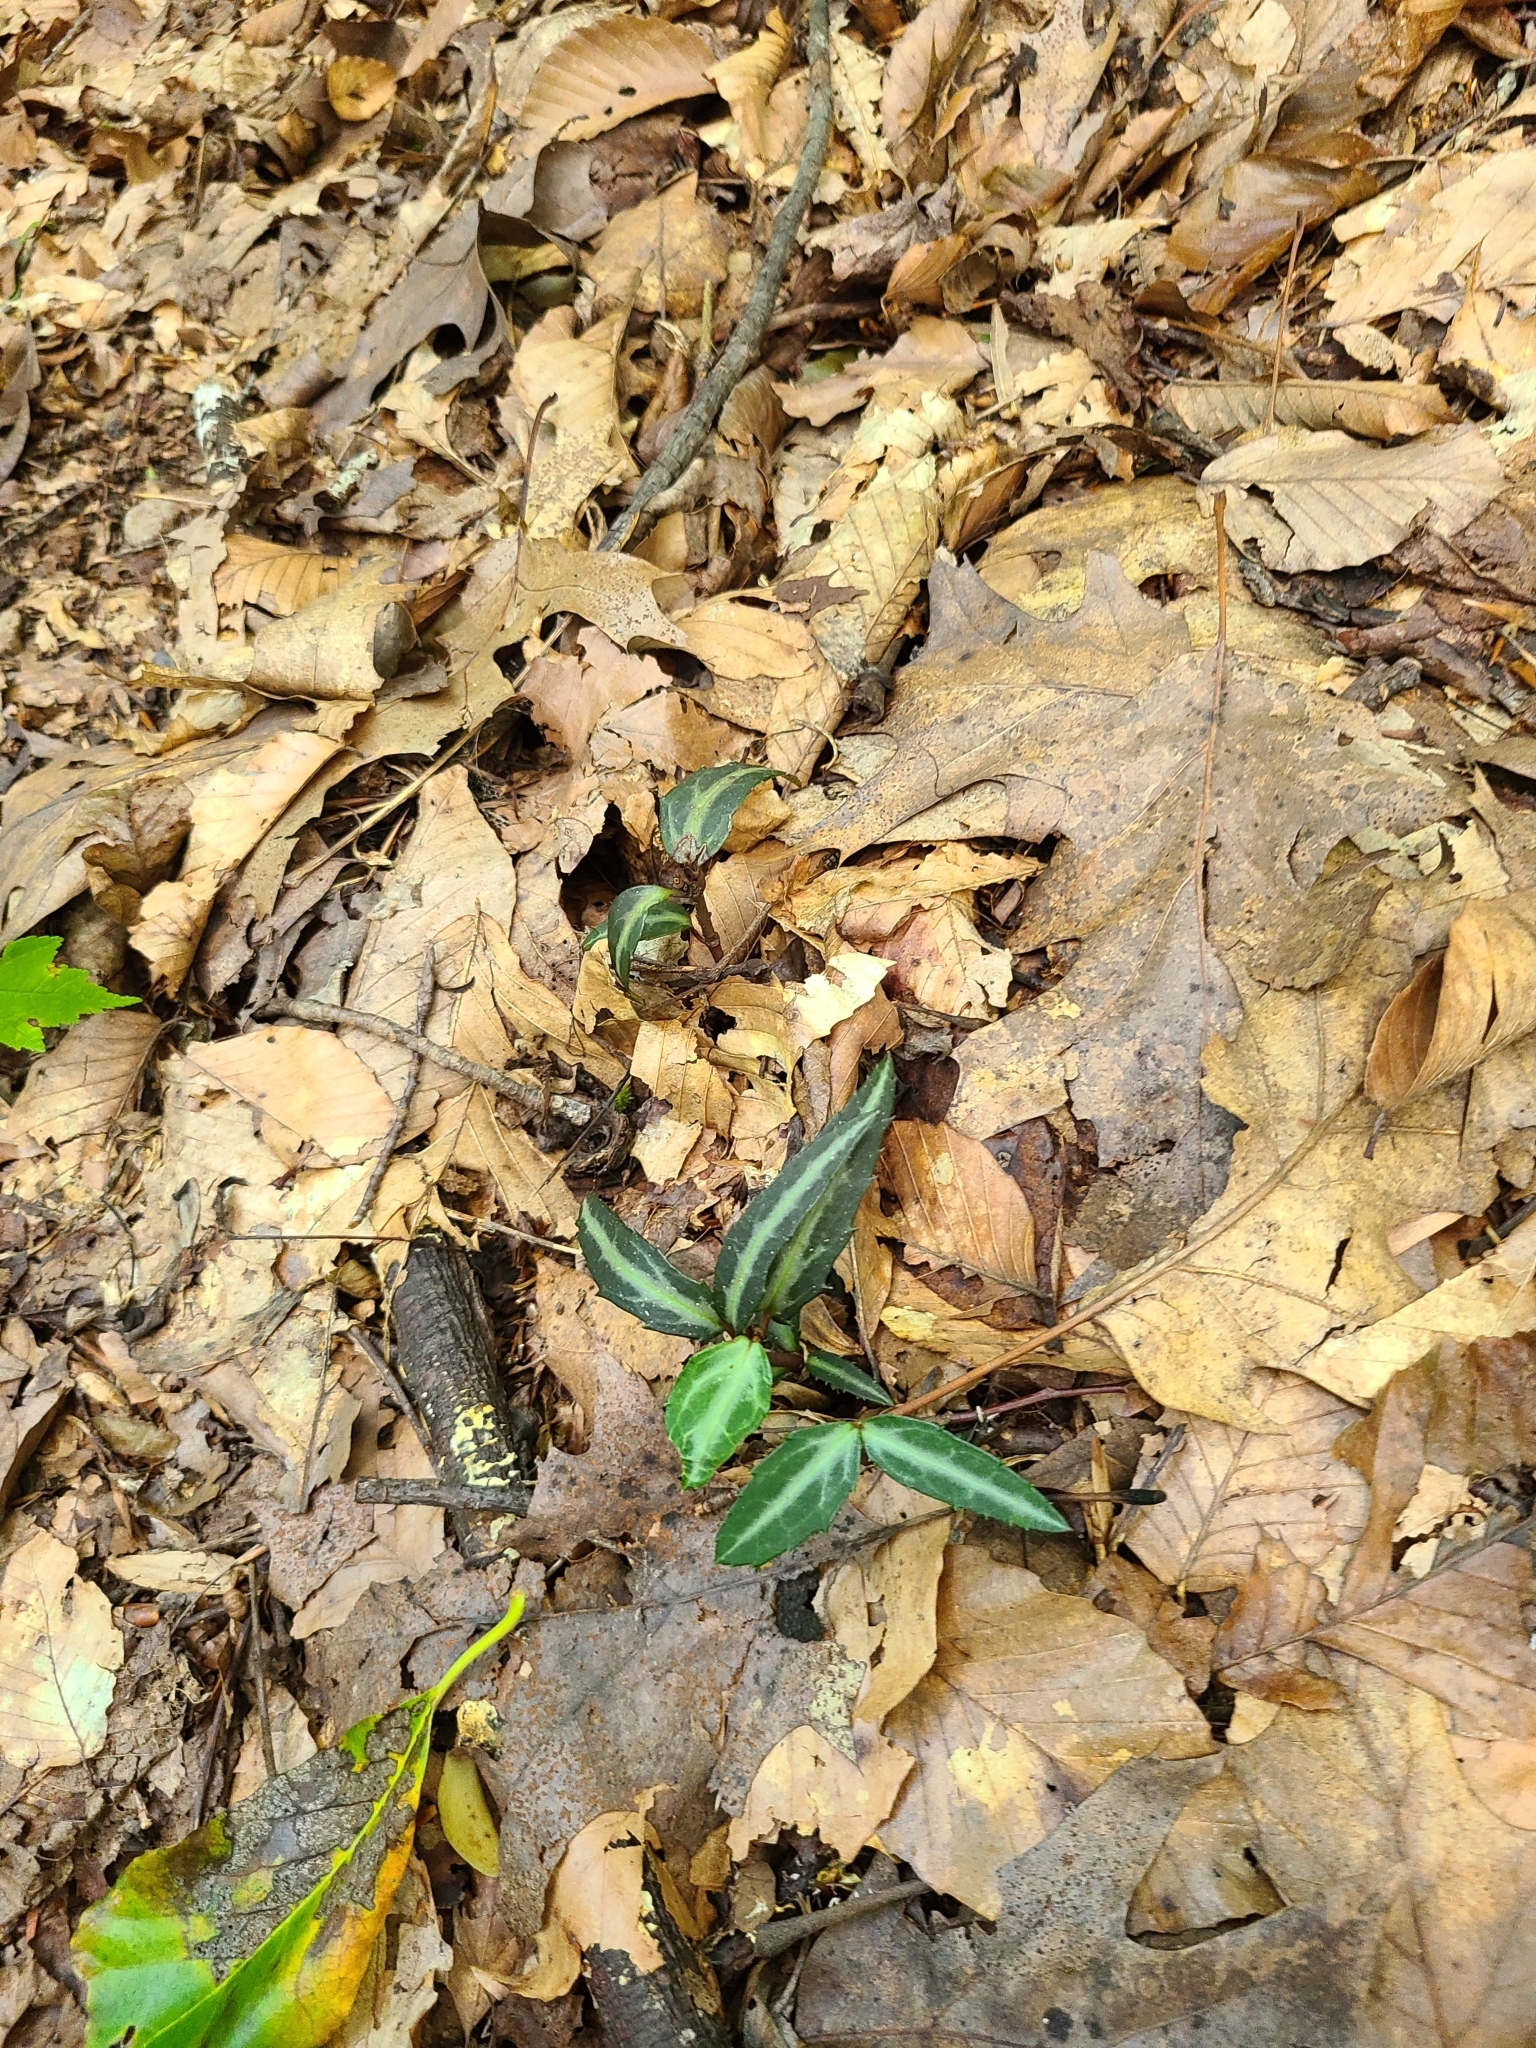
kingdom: Plantae
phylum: Tracheophyta
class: Magnoliopsida
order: Ericales
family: Ericaceae
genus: Chimaphila
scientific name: Chimaphila maculata
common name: Spotted pipsissewa
